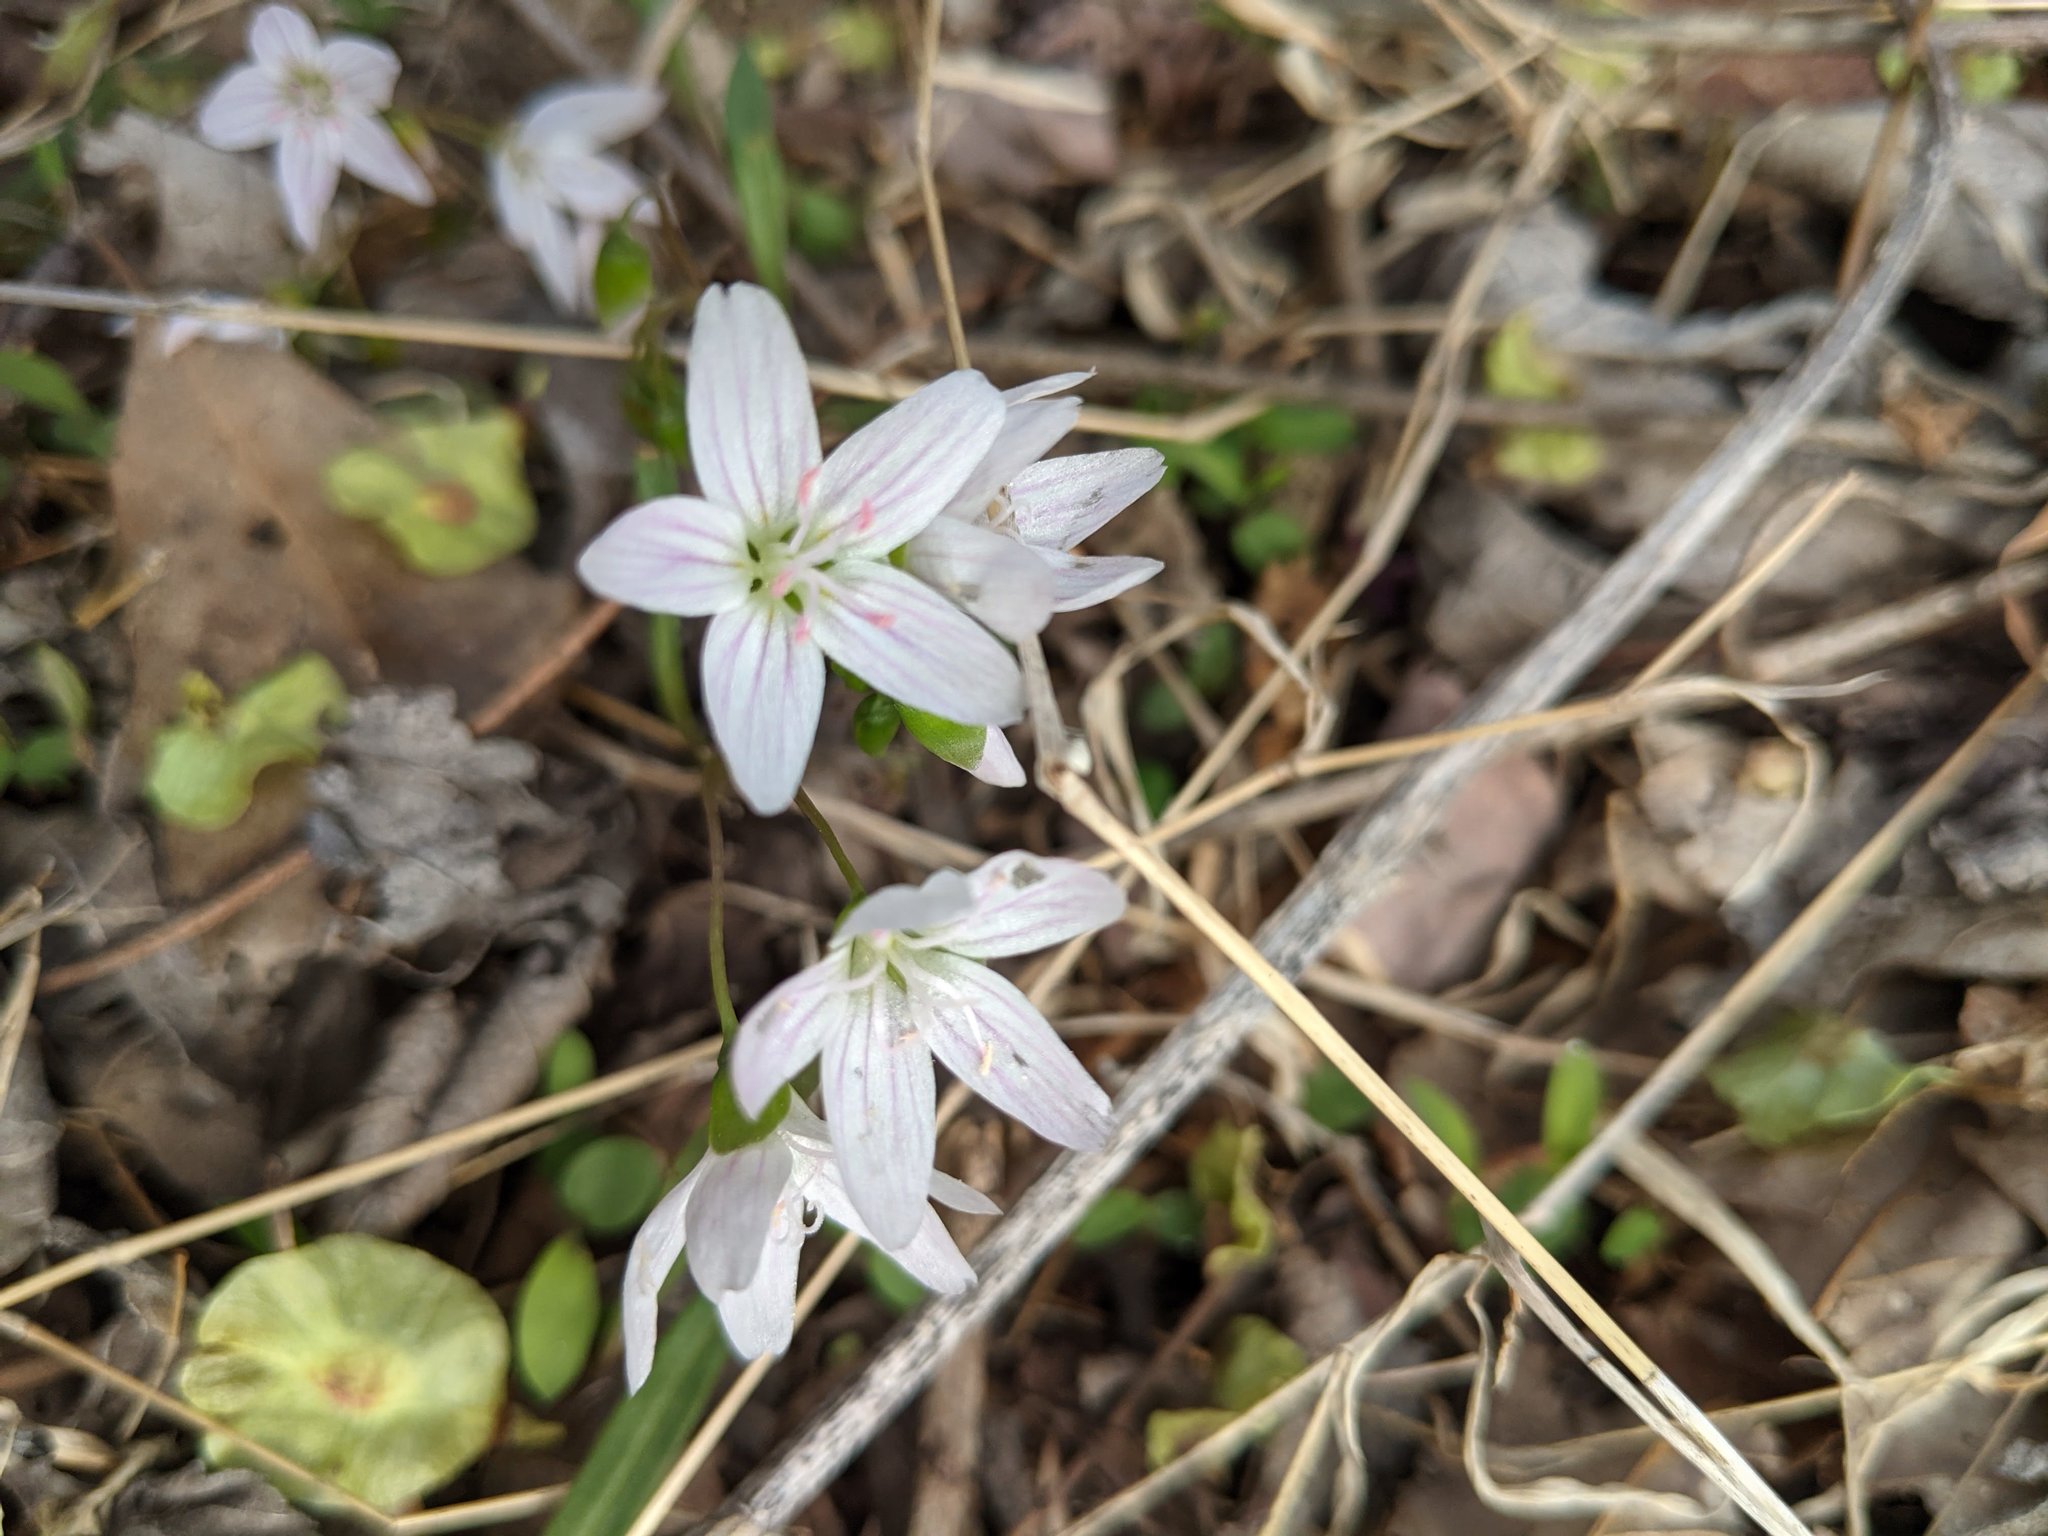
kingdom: Plantae
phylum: Tracheophyta
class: Magnoliopsida
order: Caryophyllales
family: Montiaceae
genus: Claytonia
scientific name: Claytonia virginica
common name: Virginia springbeauty
